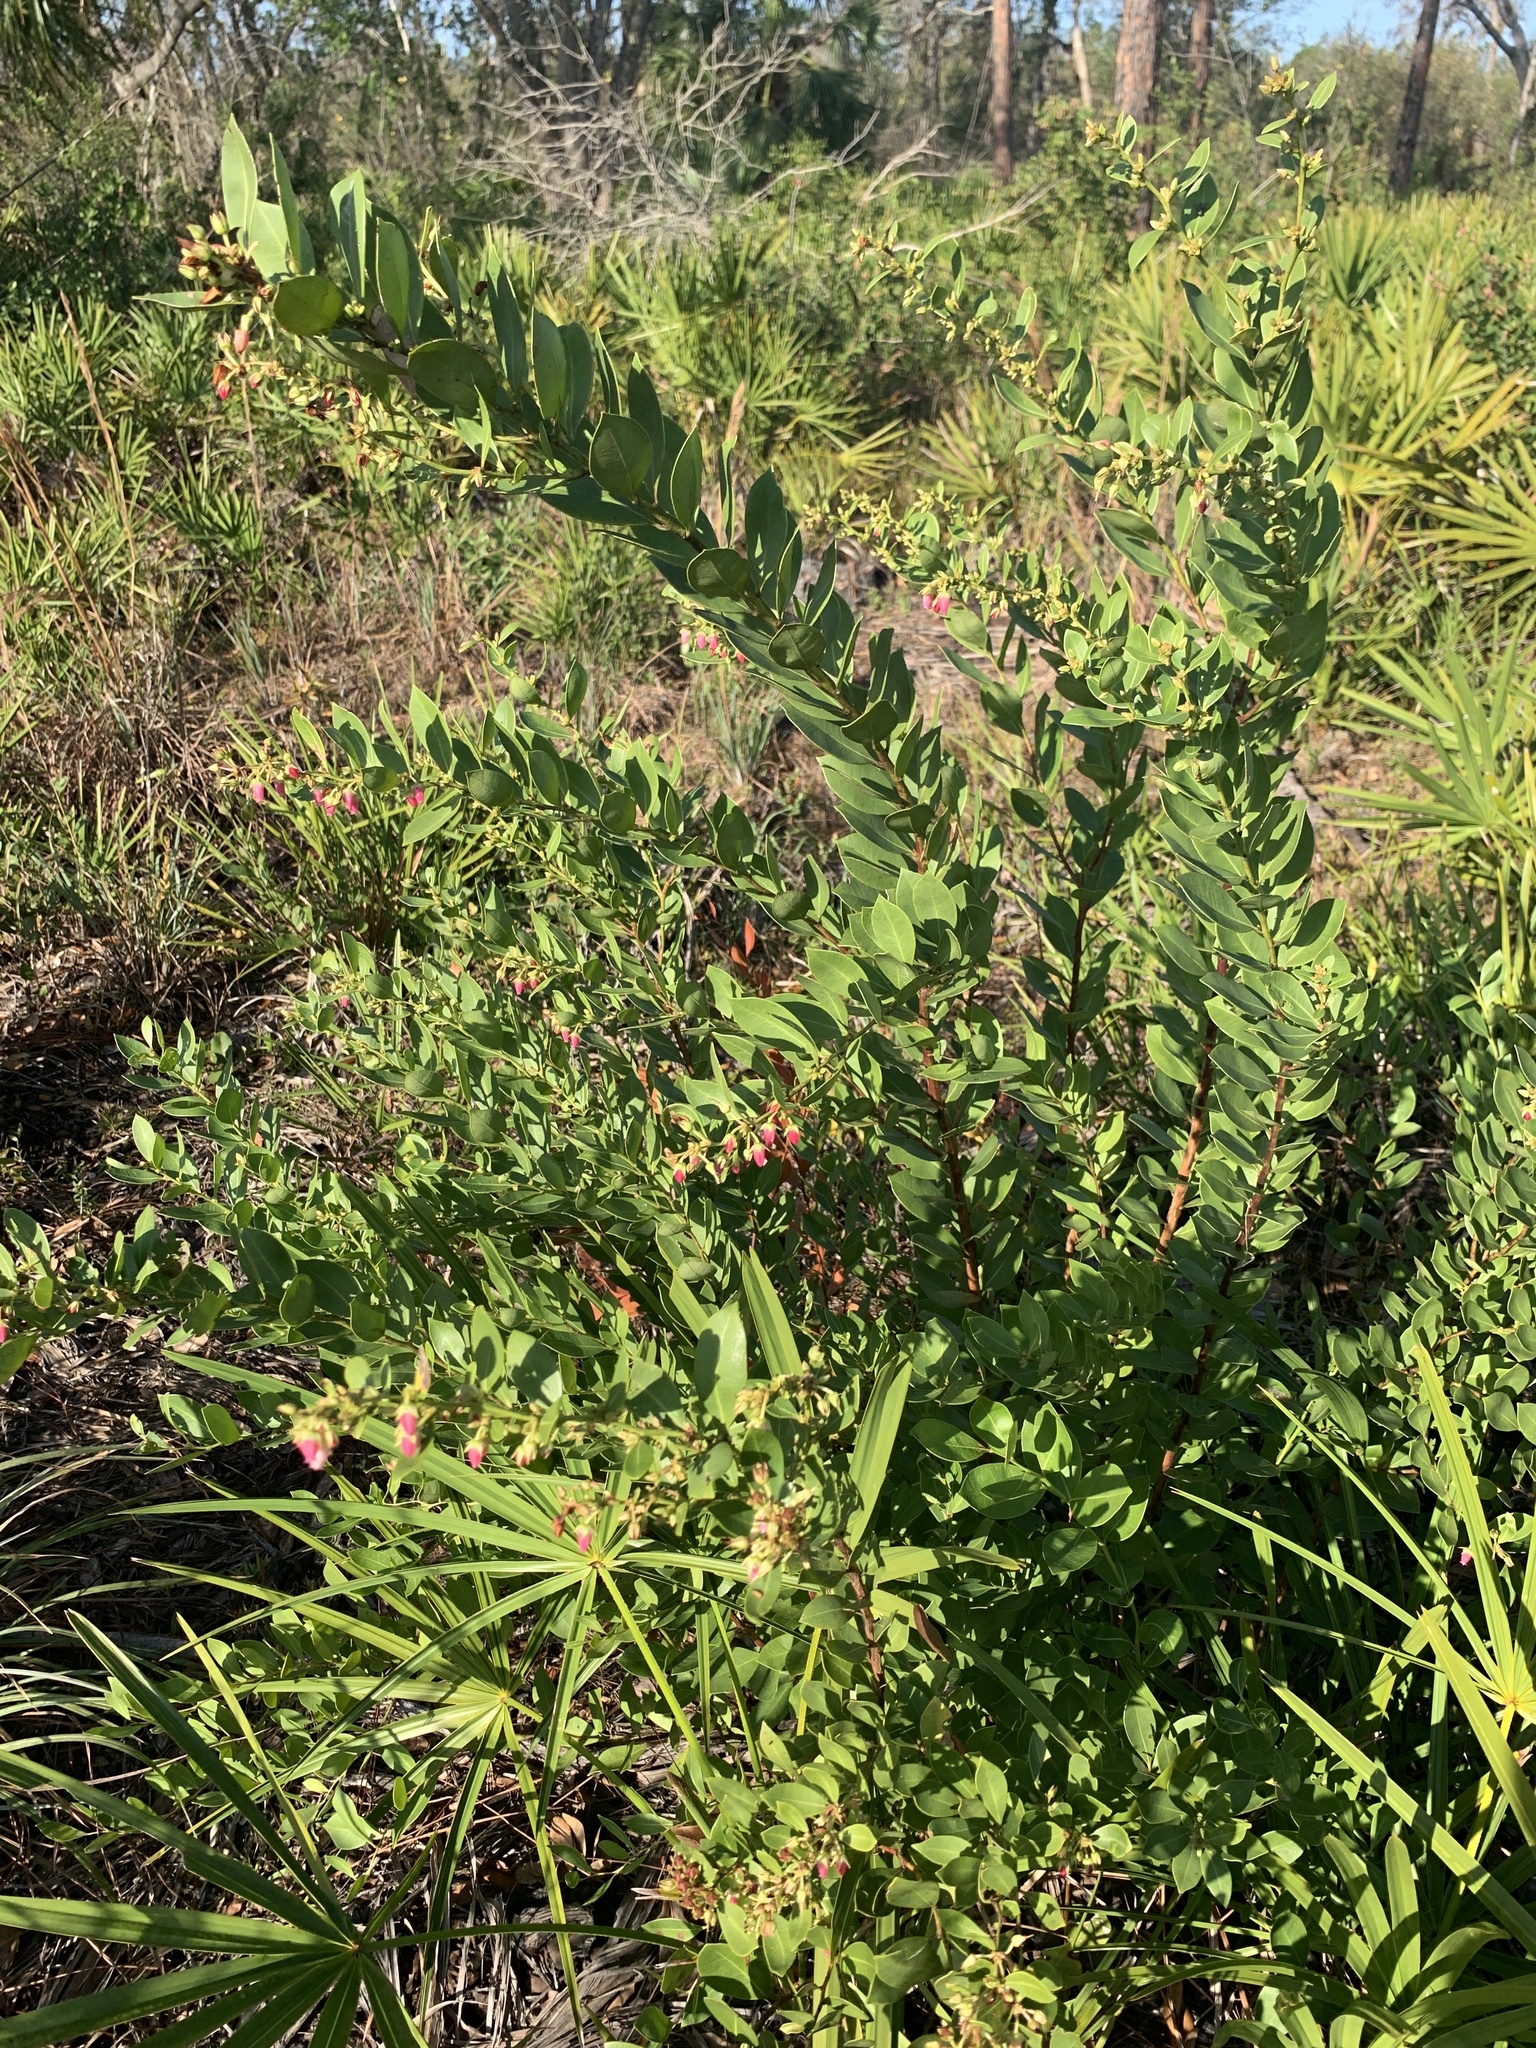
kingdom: Plantae
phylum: Tracheophyta
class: Magnoliopsida
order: Ericales
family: Ericaceae
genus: Lyonia
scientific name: Lyonia lucida
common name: Fetterbush
